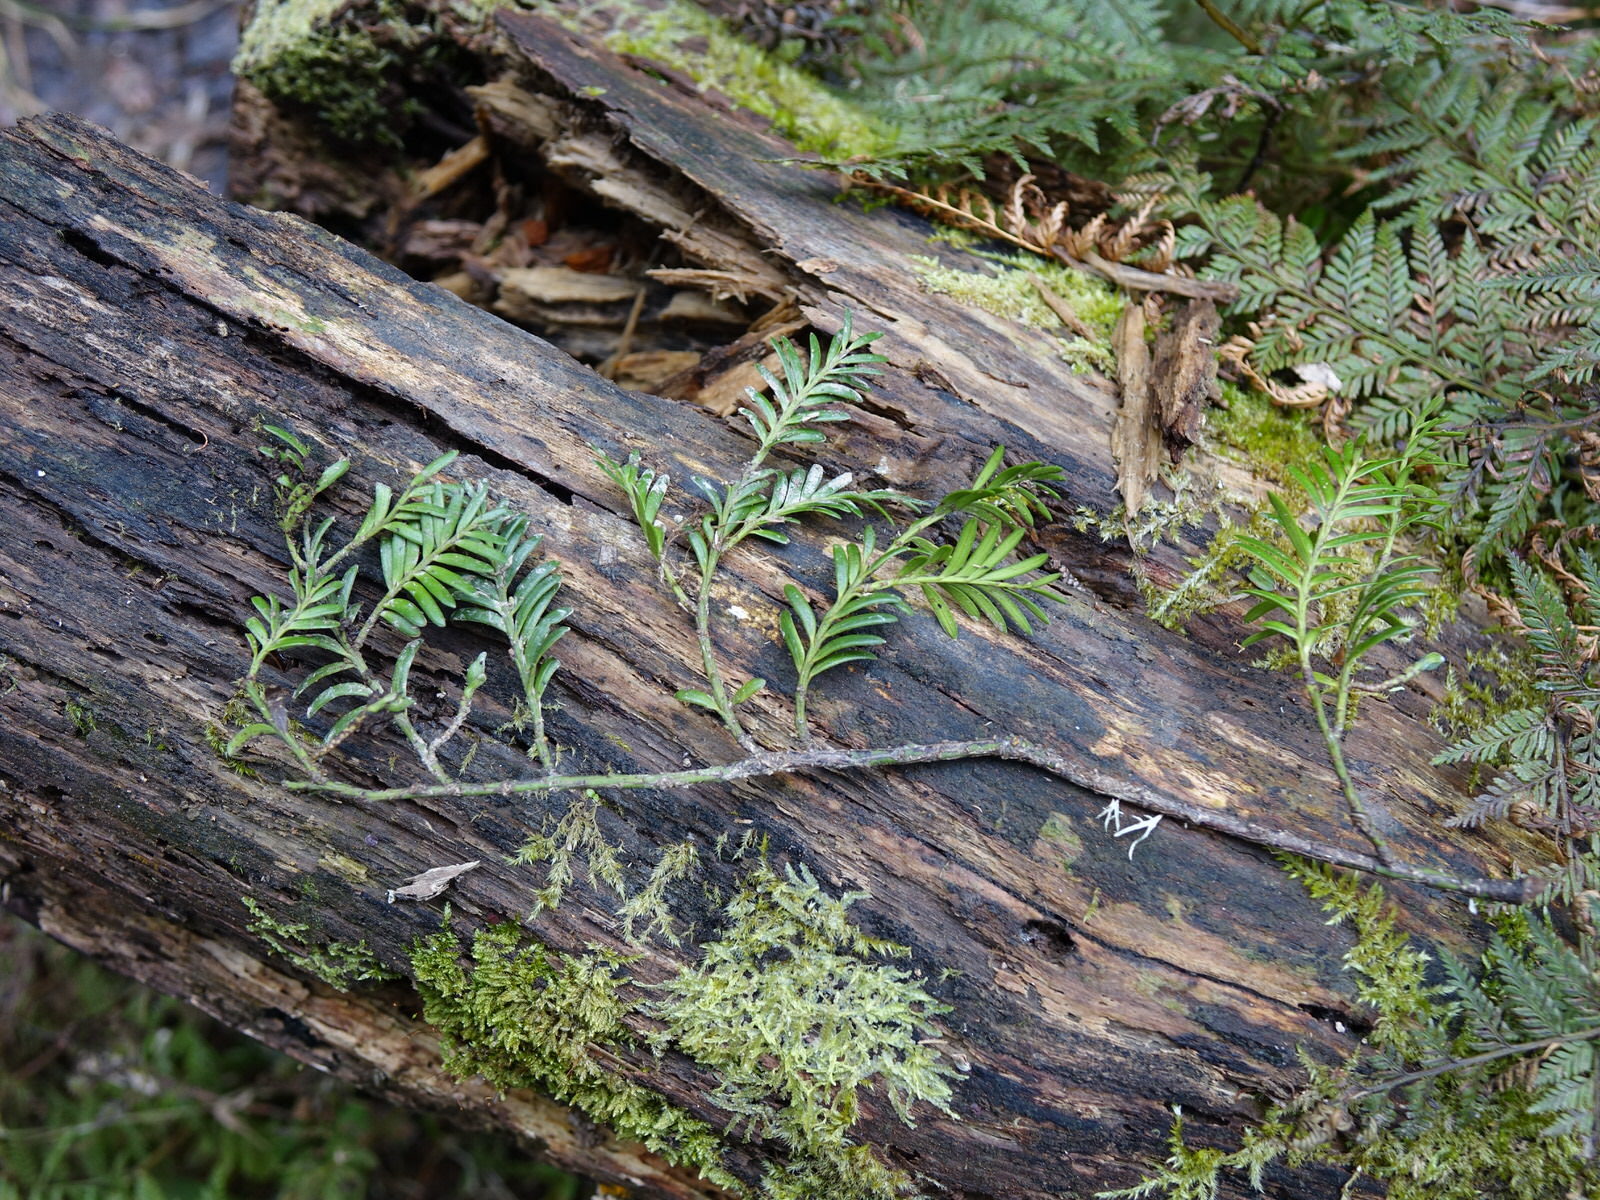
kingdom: Plantae
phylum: Tracheophyta
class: Pinopsida
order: Pinales
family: Podocarpaceae
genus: Prumnopitys
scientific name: Prumnopitys taxifolia
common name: Matai
